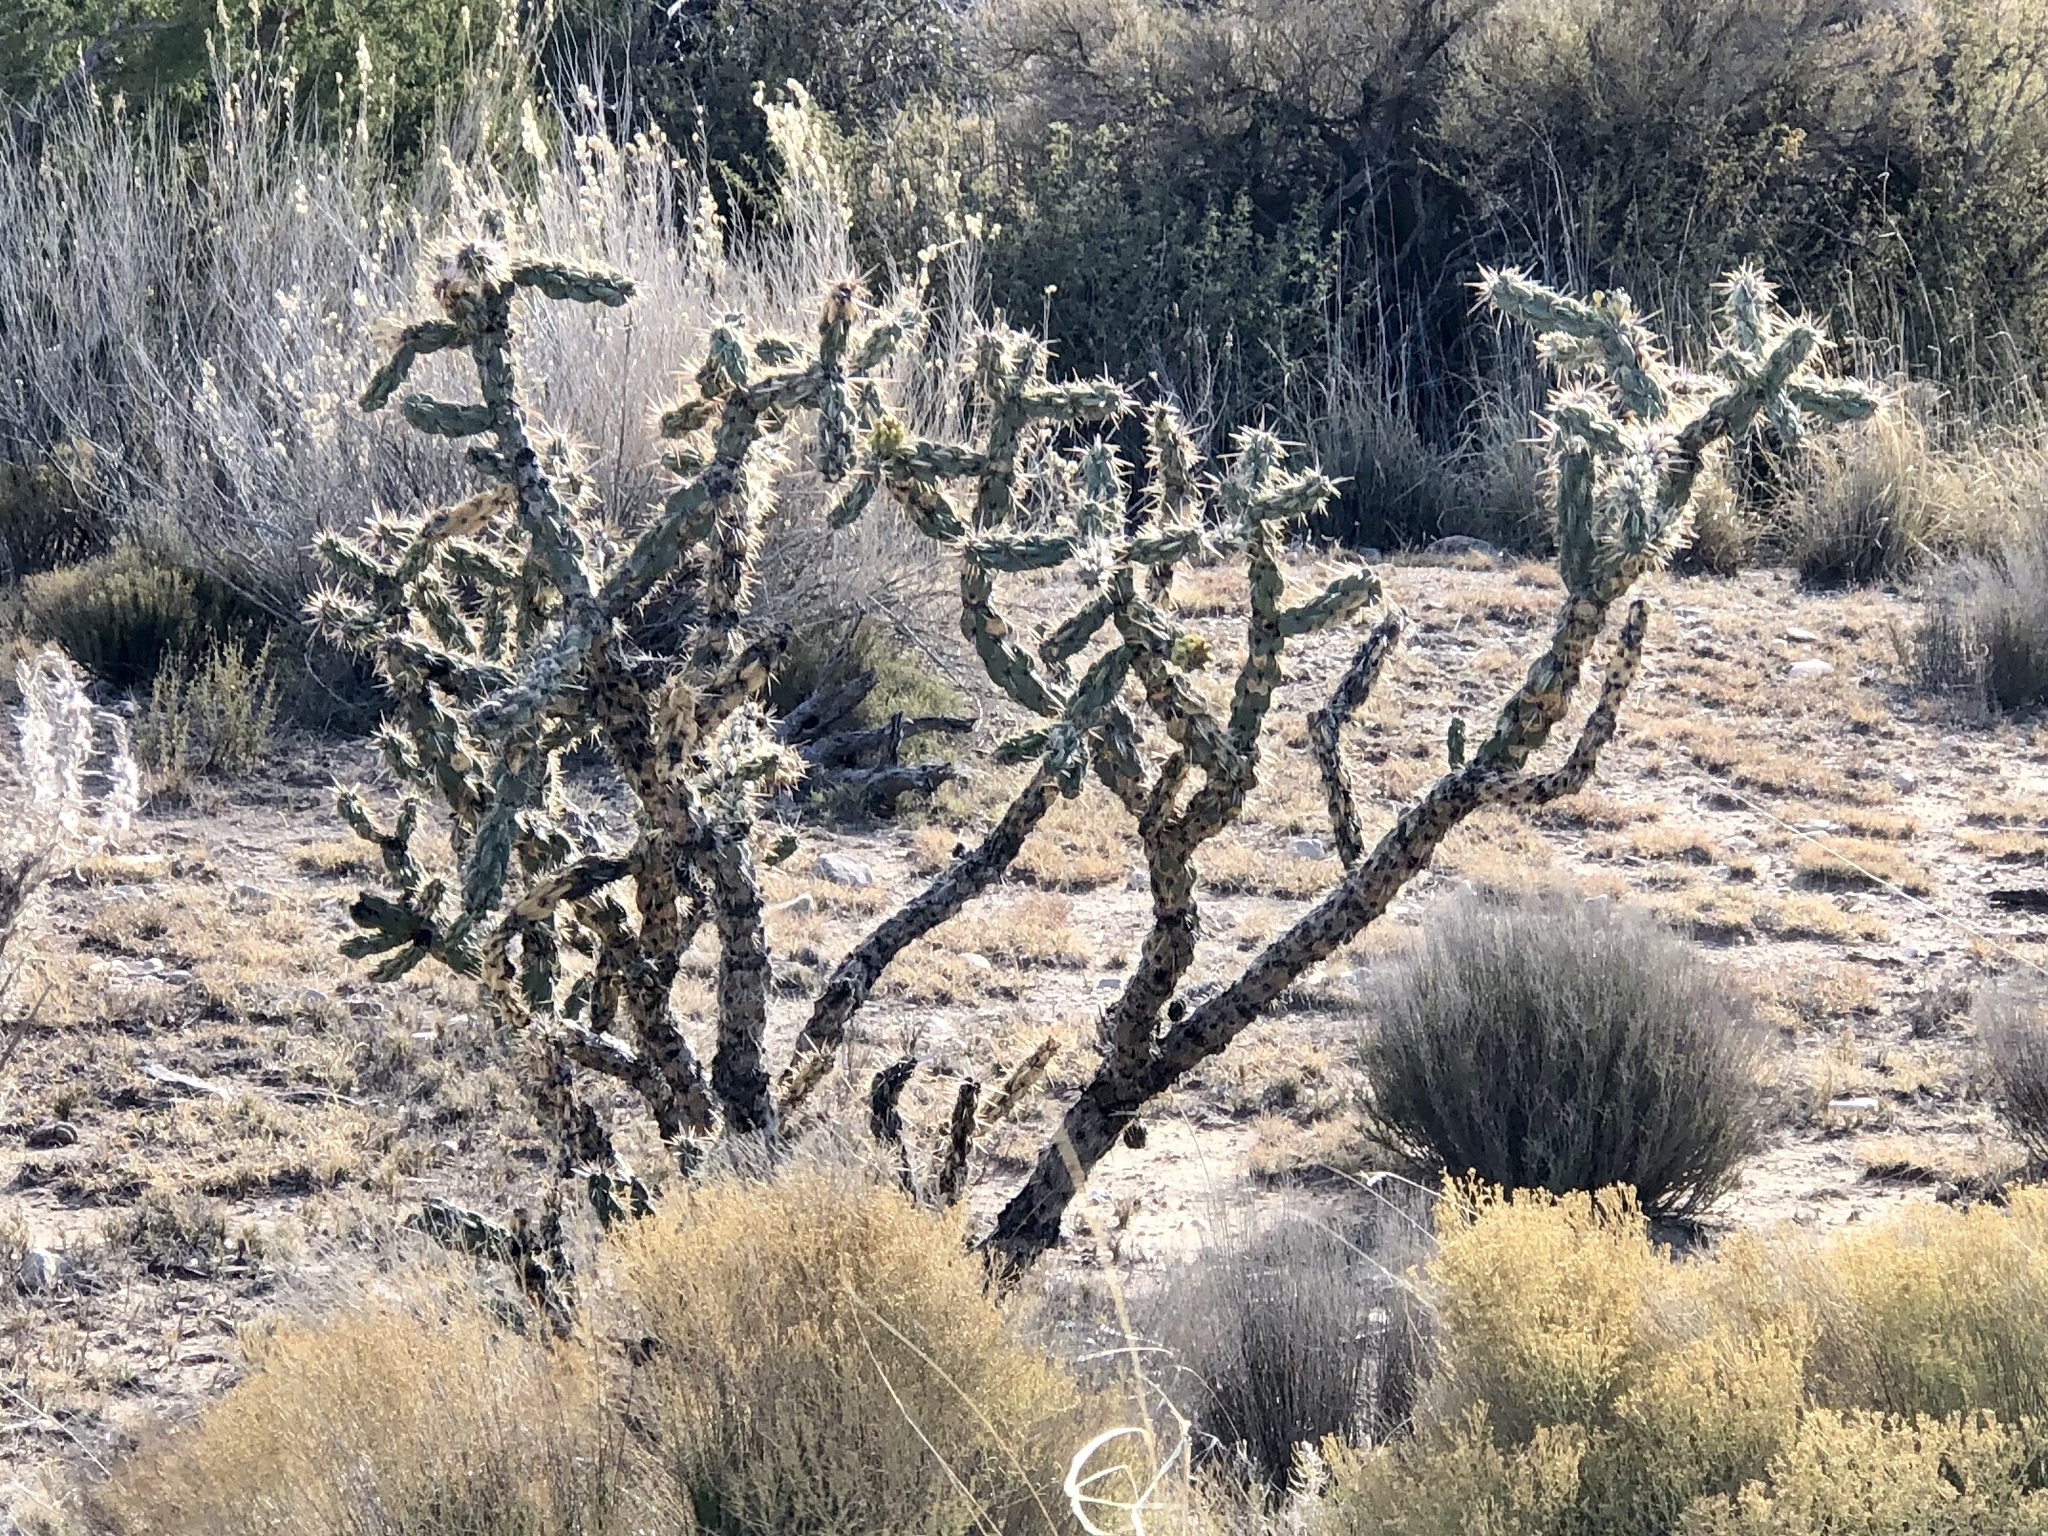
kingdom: Plantae
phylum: Tracheophyta
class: Magnoliopsida
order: Caryophyllales
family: Cactaceae
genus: Cylindropuntia
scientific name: Cylindropuntia imbricata
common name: Candelabrum cactus
